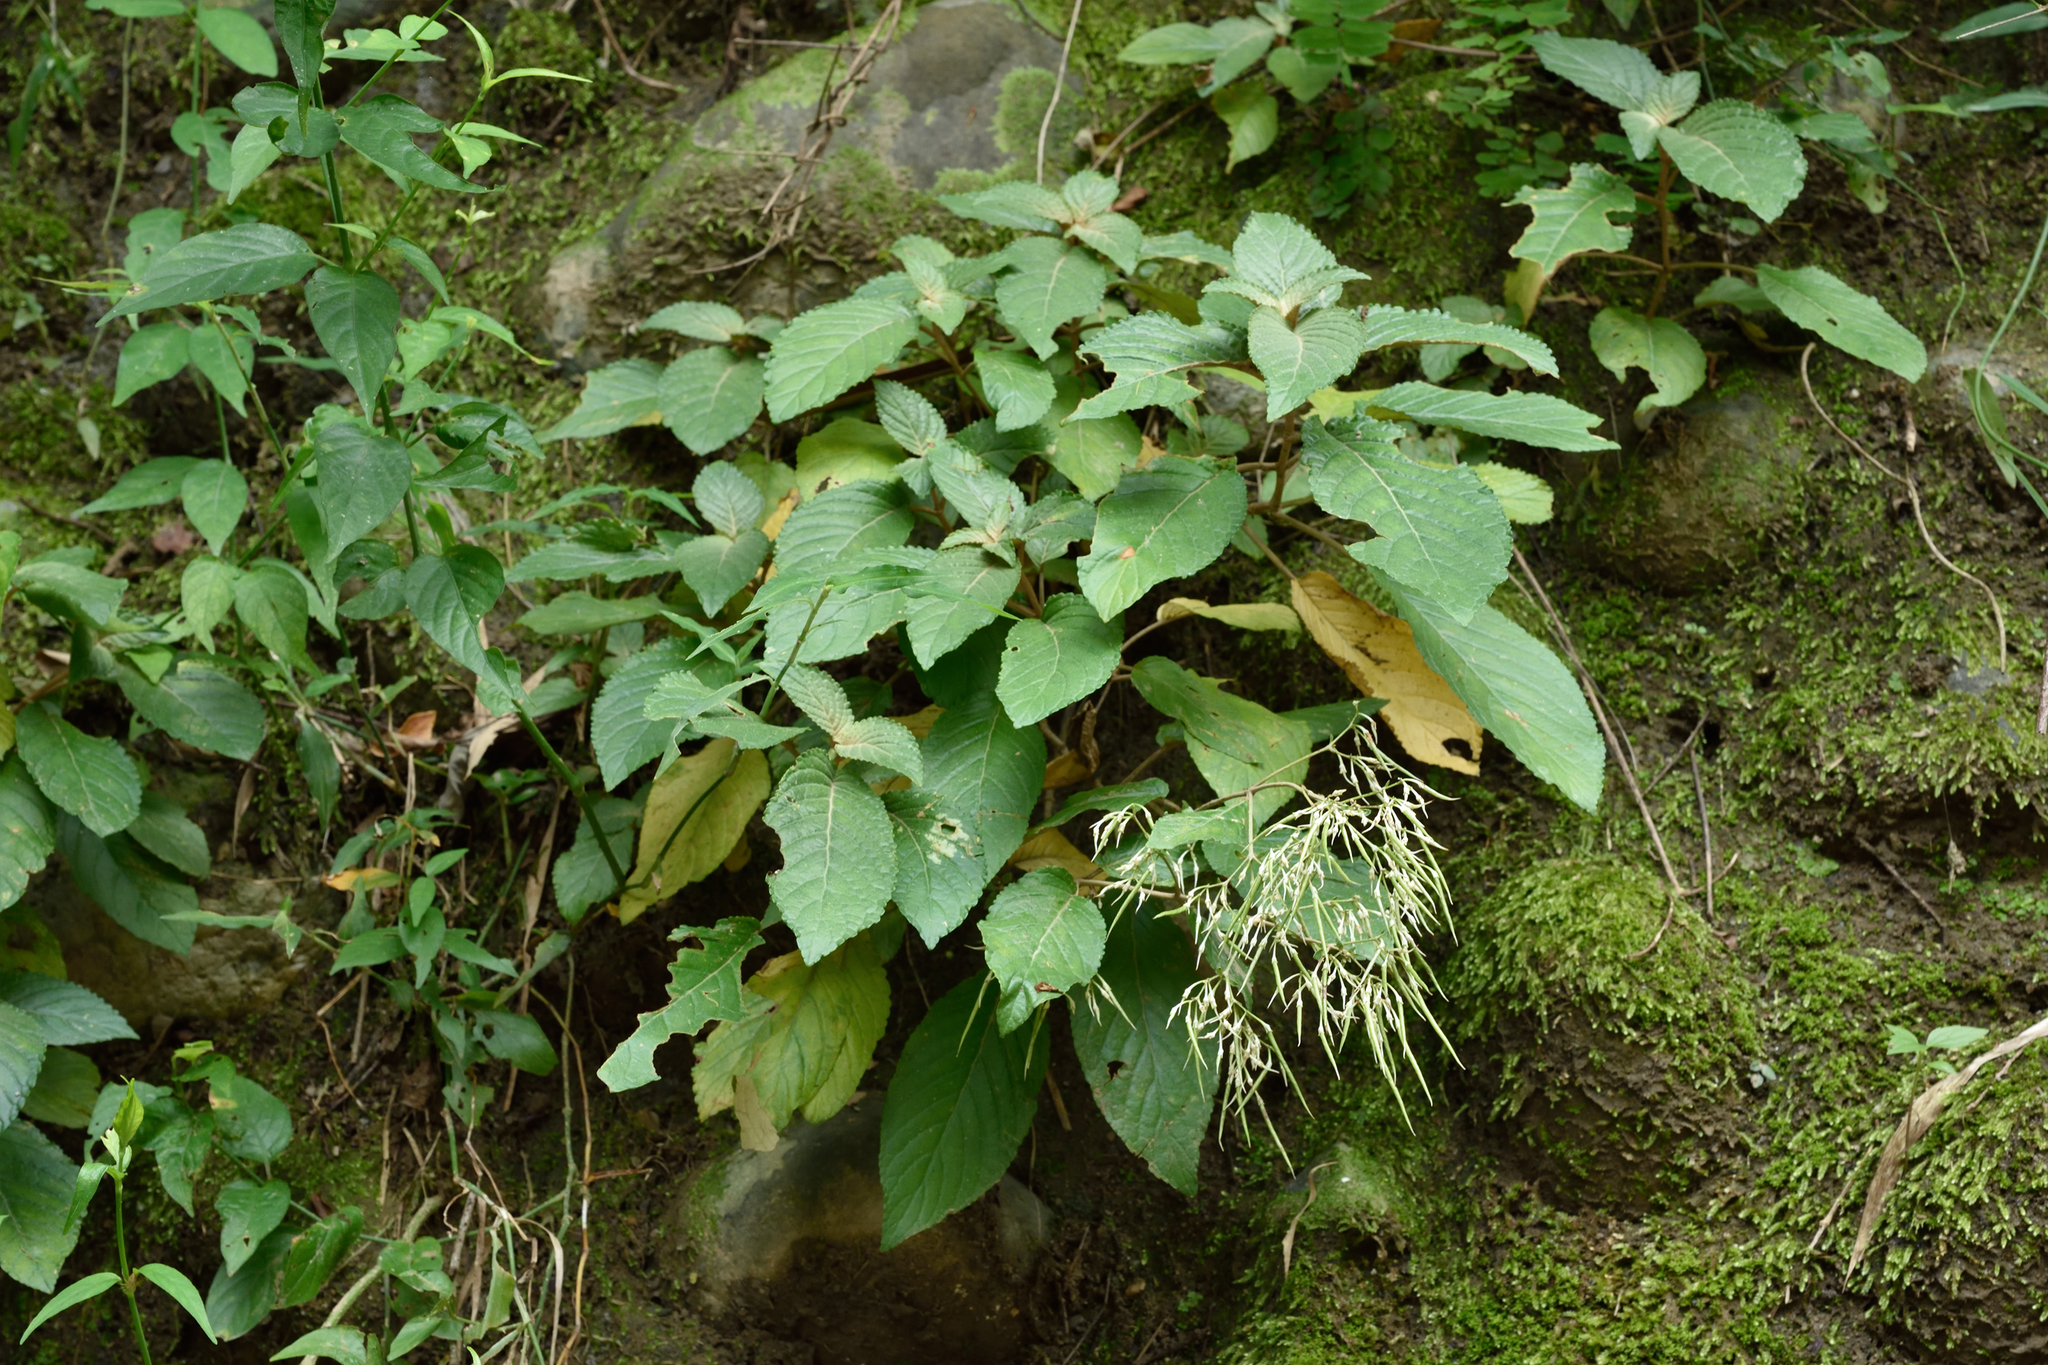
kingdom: Plantae
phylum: Tracheophyta
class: Magnoliopsida
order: Lamiales
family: Gesneriaceae
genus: Paraboea
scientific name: Paraboea swinhoei
